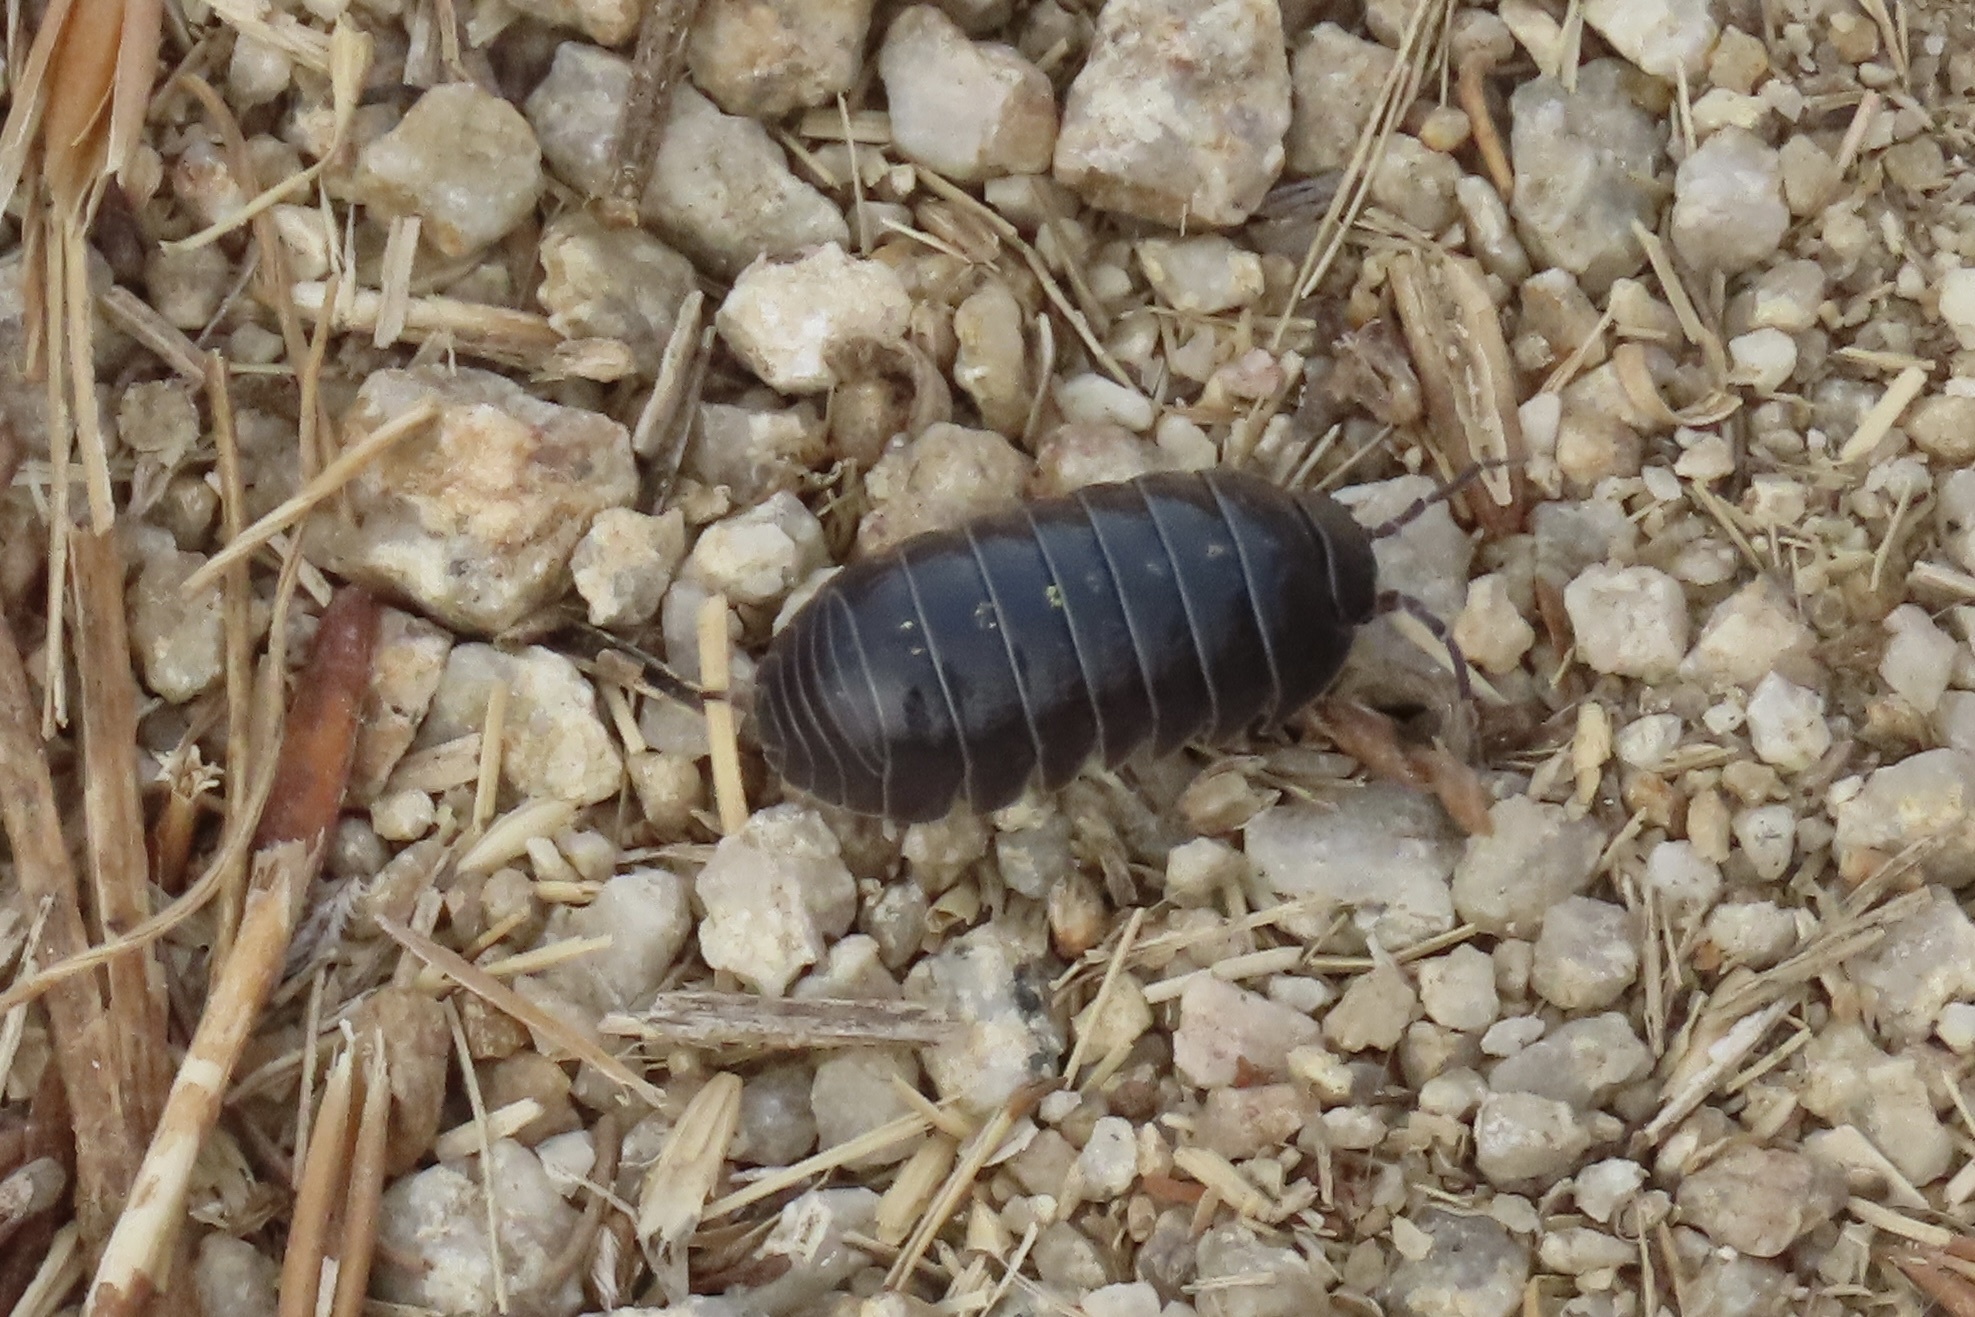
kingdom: Animalia
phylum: Arthropoda
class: Malacostraca
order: Isopoda
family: Armadillidiidae
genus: Armadillidium
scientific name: Armadillidium vulgare
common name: Common pill woodlouse
